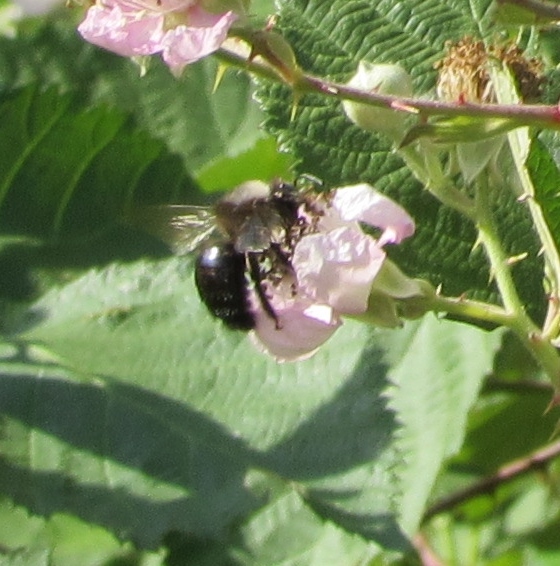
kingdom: Animalia
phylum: Arthropoda
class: Insecta
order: Hymenoptera
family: Apidae
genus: Xylocopa
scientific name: Xylocopa tabaniformis
